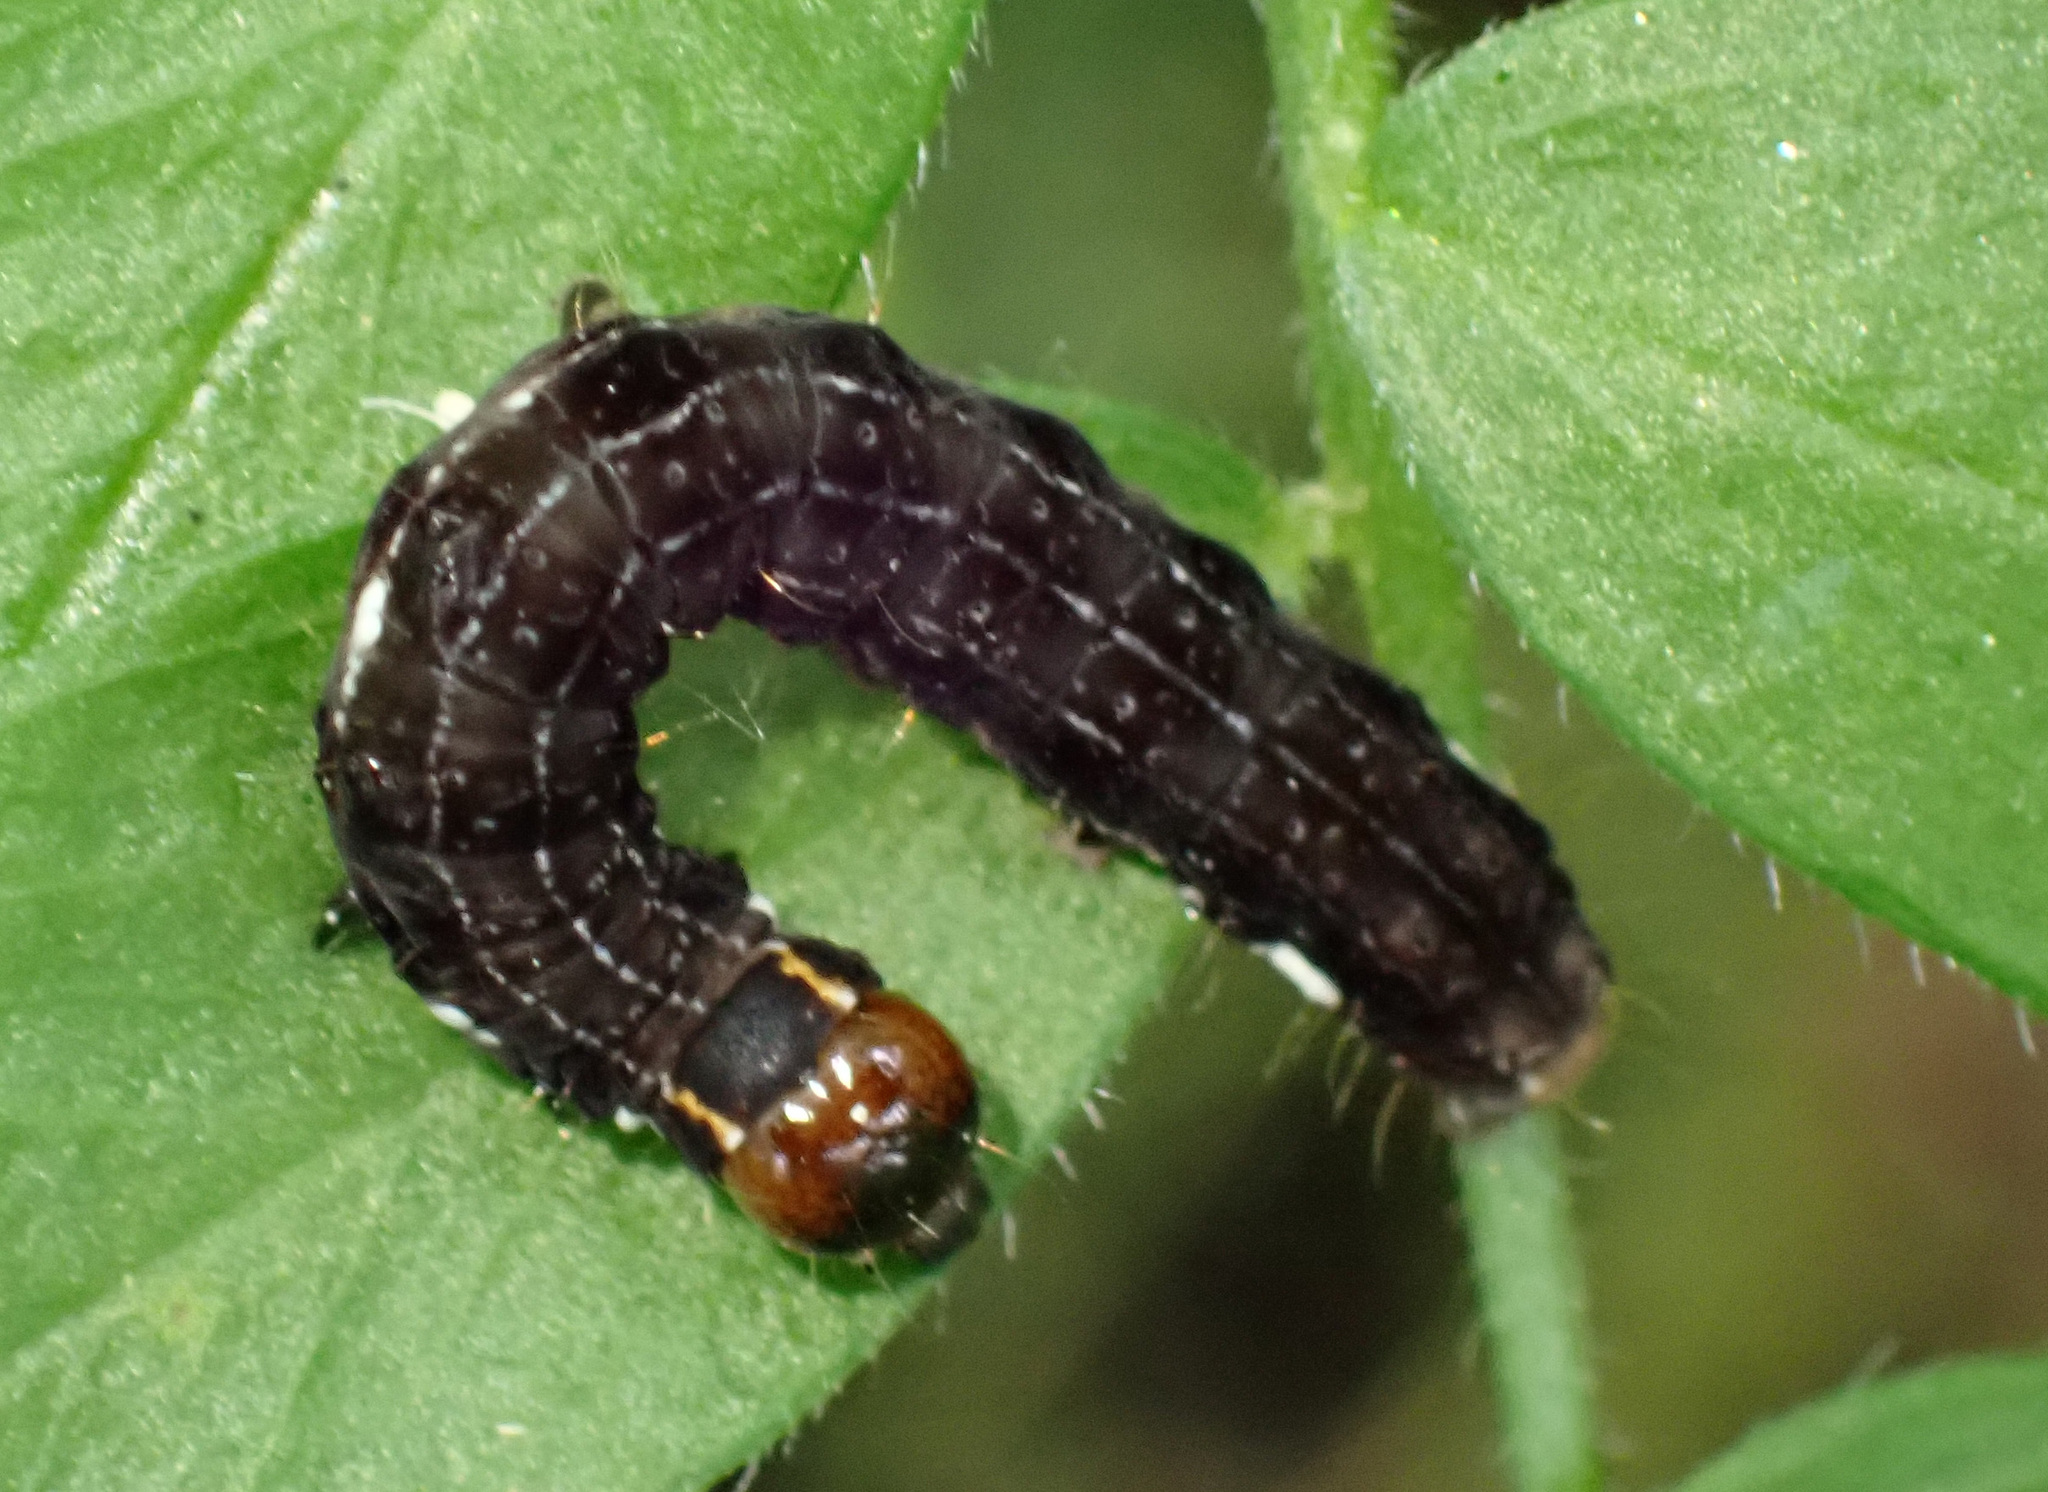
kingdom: Animalia
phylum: Arthropoda
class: Insecta
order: Lepidoptera
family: Noctuidae
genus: Eupsilia
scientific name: Eupsilia transversa
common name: Satellite
